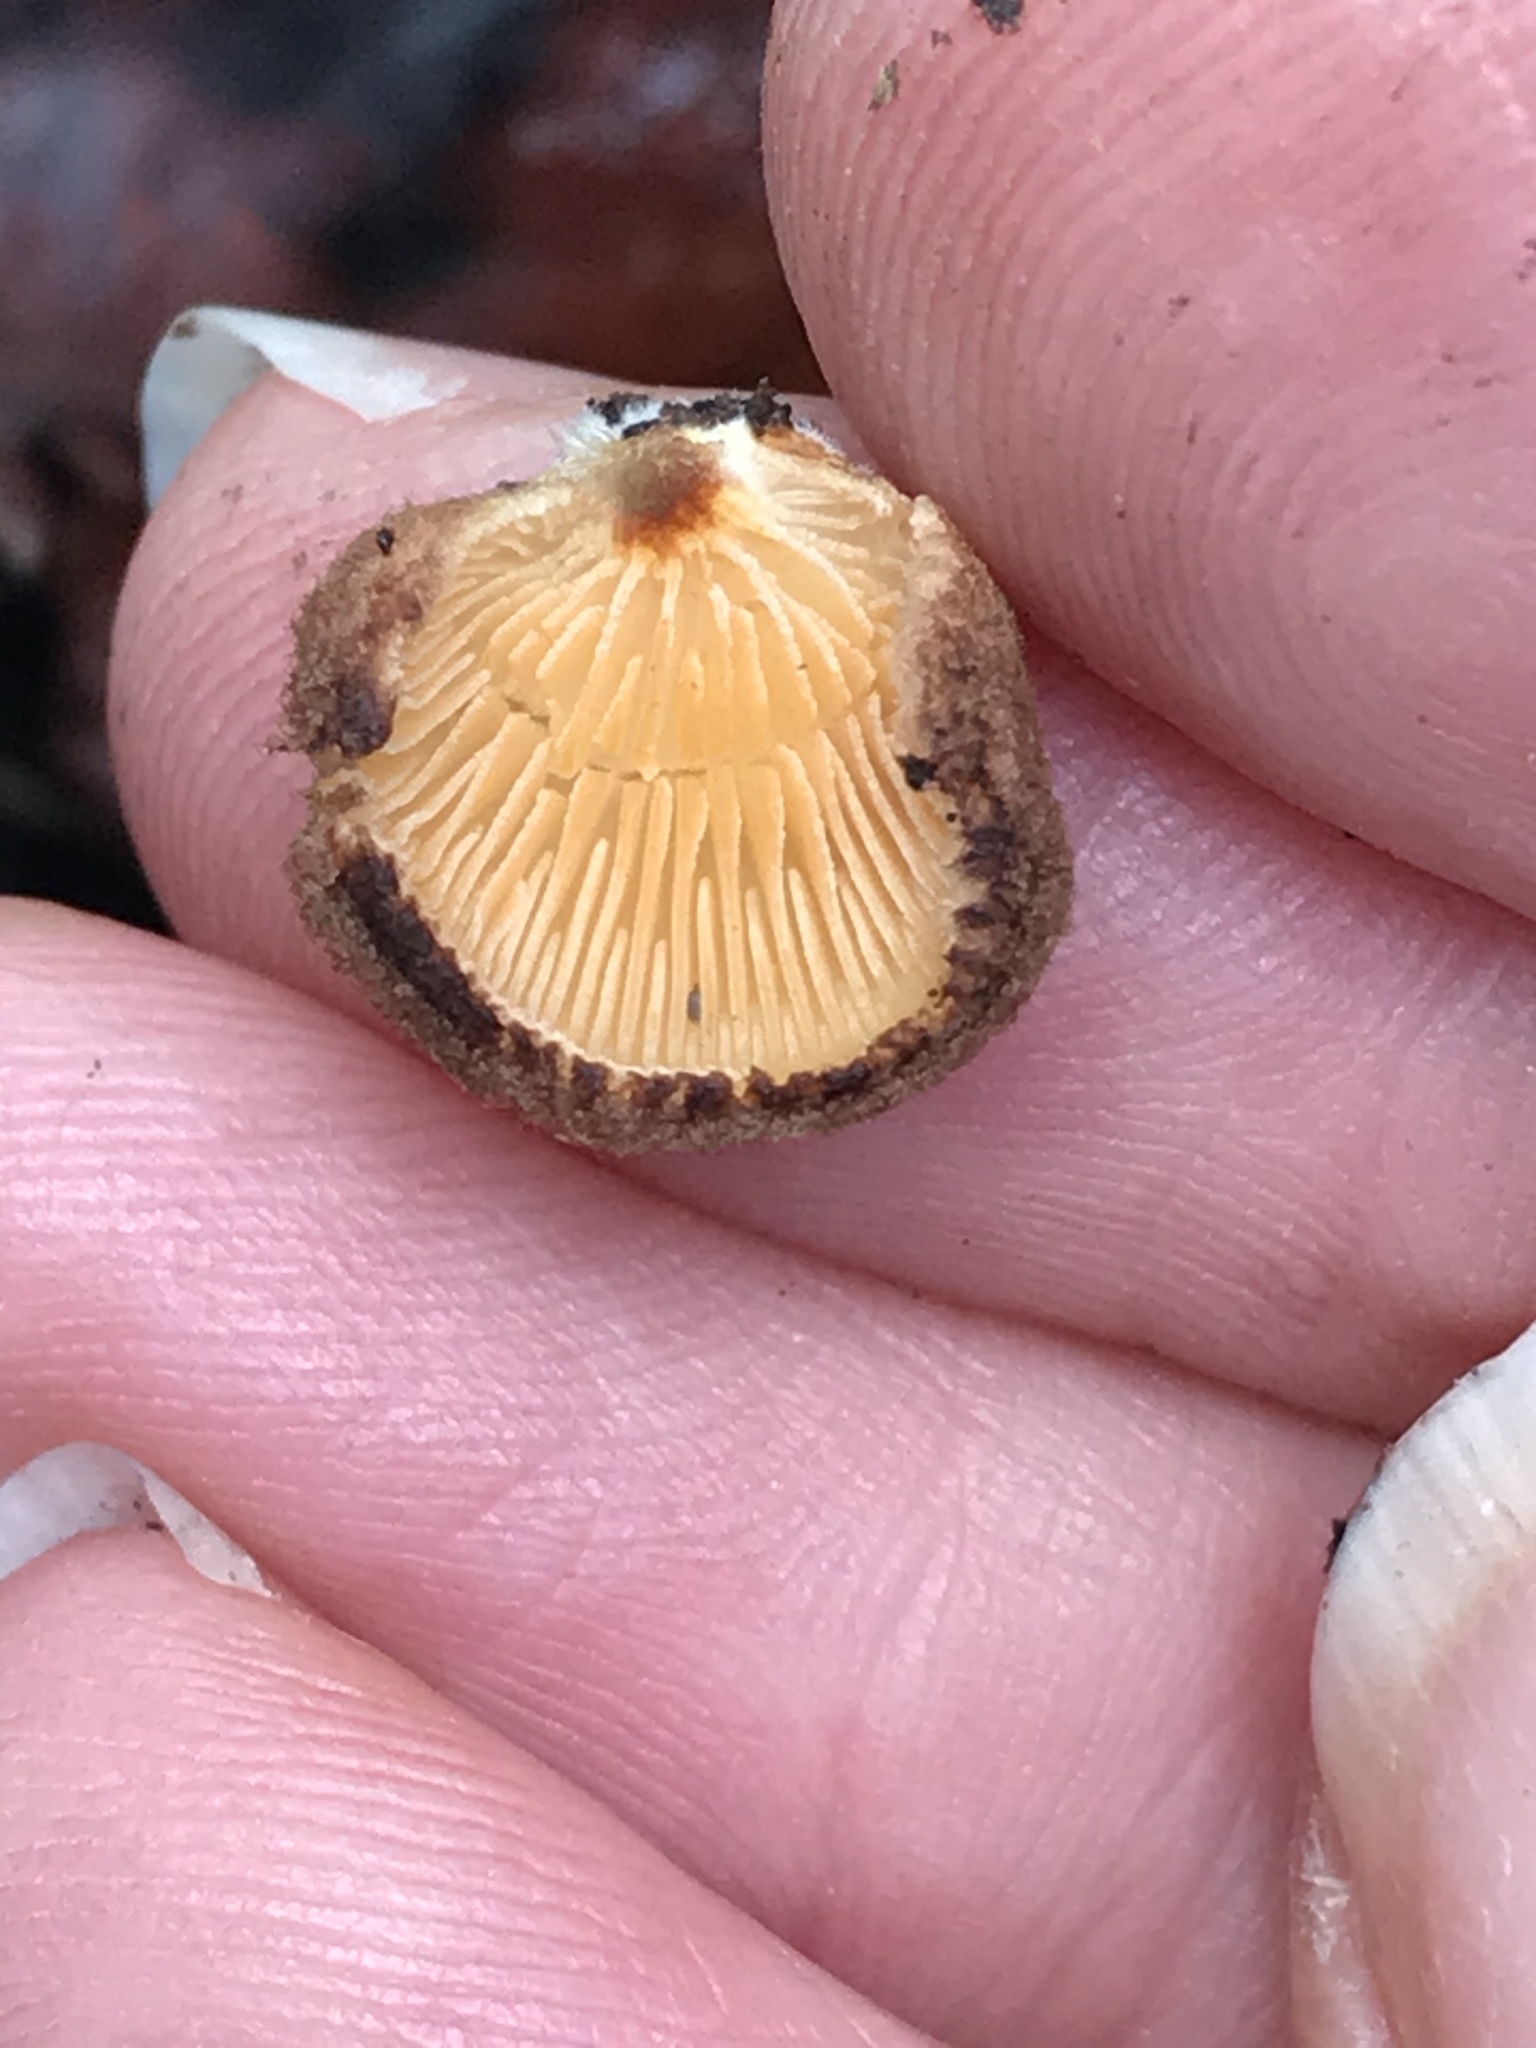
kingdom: Fungi
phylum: Basidiomycota
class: Agaricomycetes
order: Agaricales
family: Crepidotaceae
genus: Crepidotus
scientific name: Crepidotus crocophyllus
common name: Saffron oysterling
